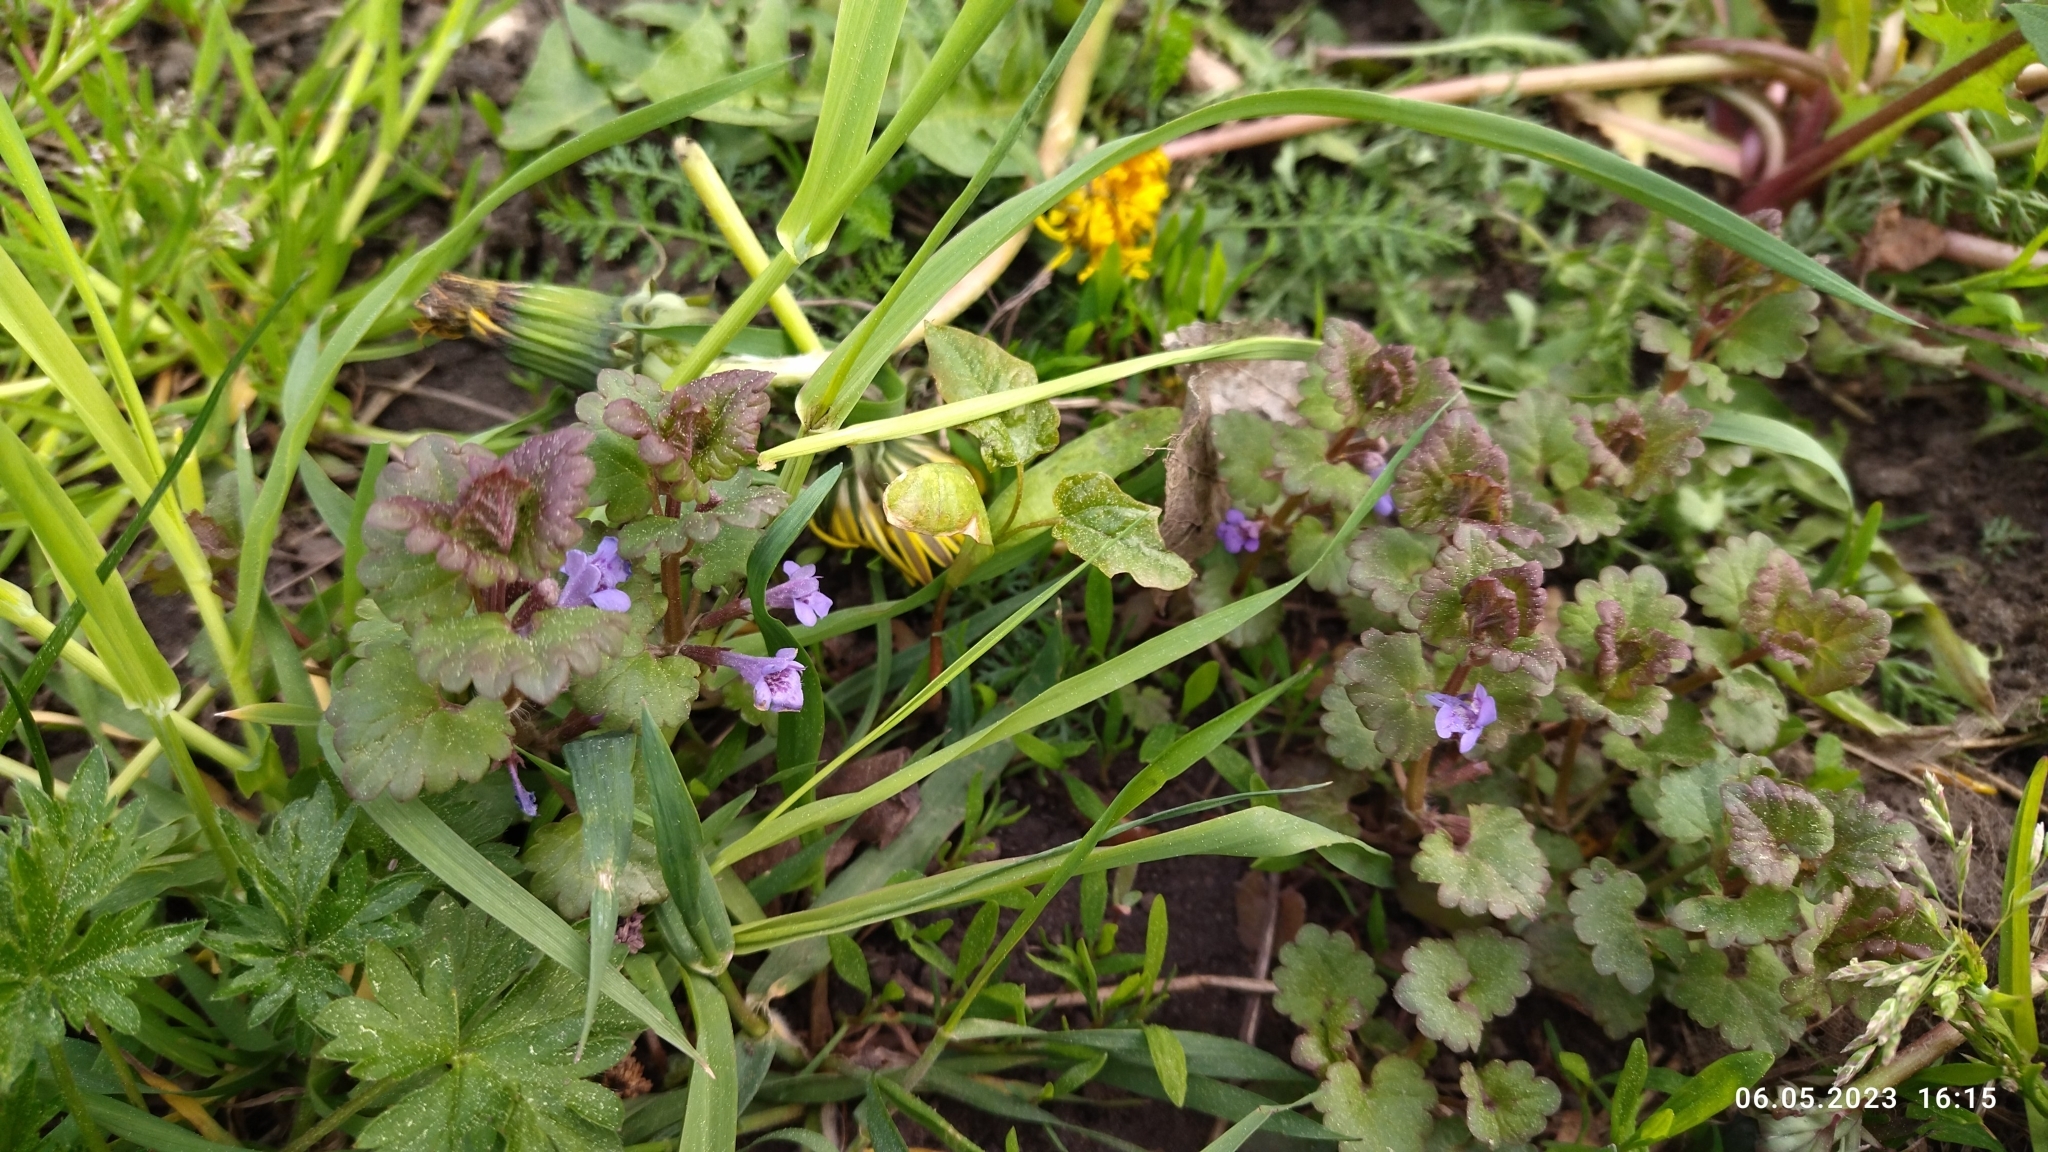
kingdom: Plantae
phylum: Tracheophyta
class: Magnoliopsida
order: Lamiales
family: Lamiaceae
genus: Glechoma
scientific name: Glechoma hederacea
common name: Ground ivy
